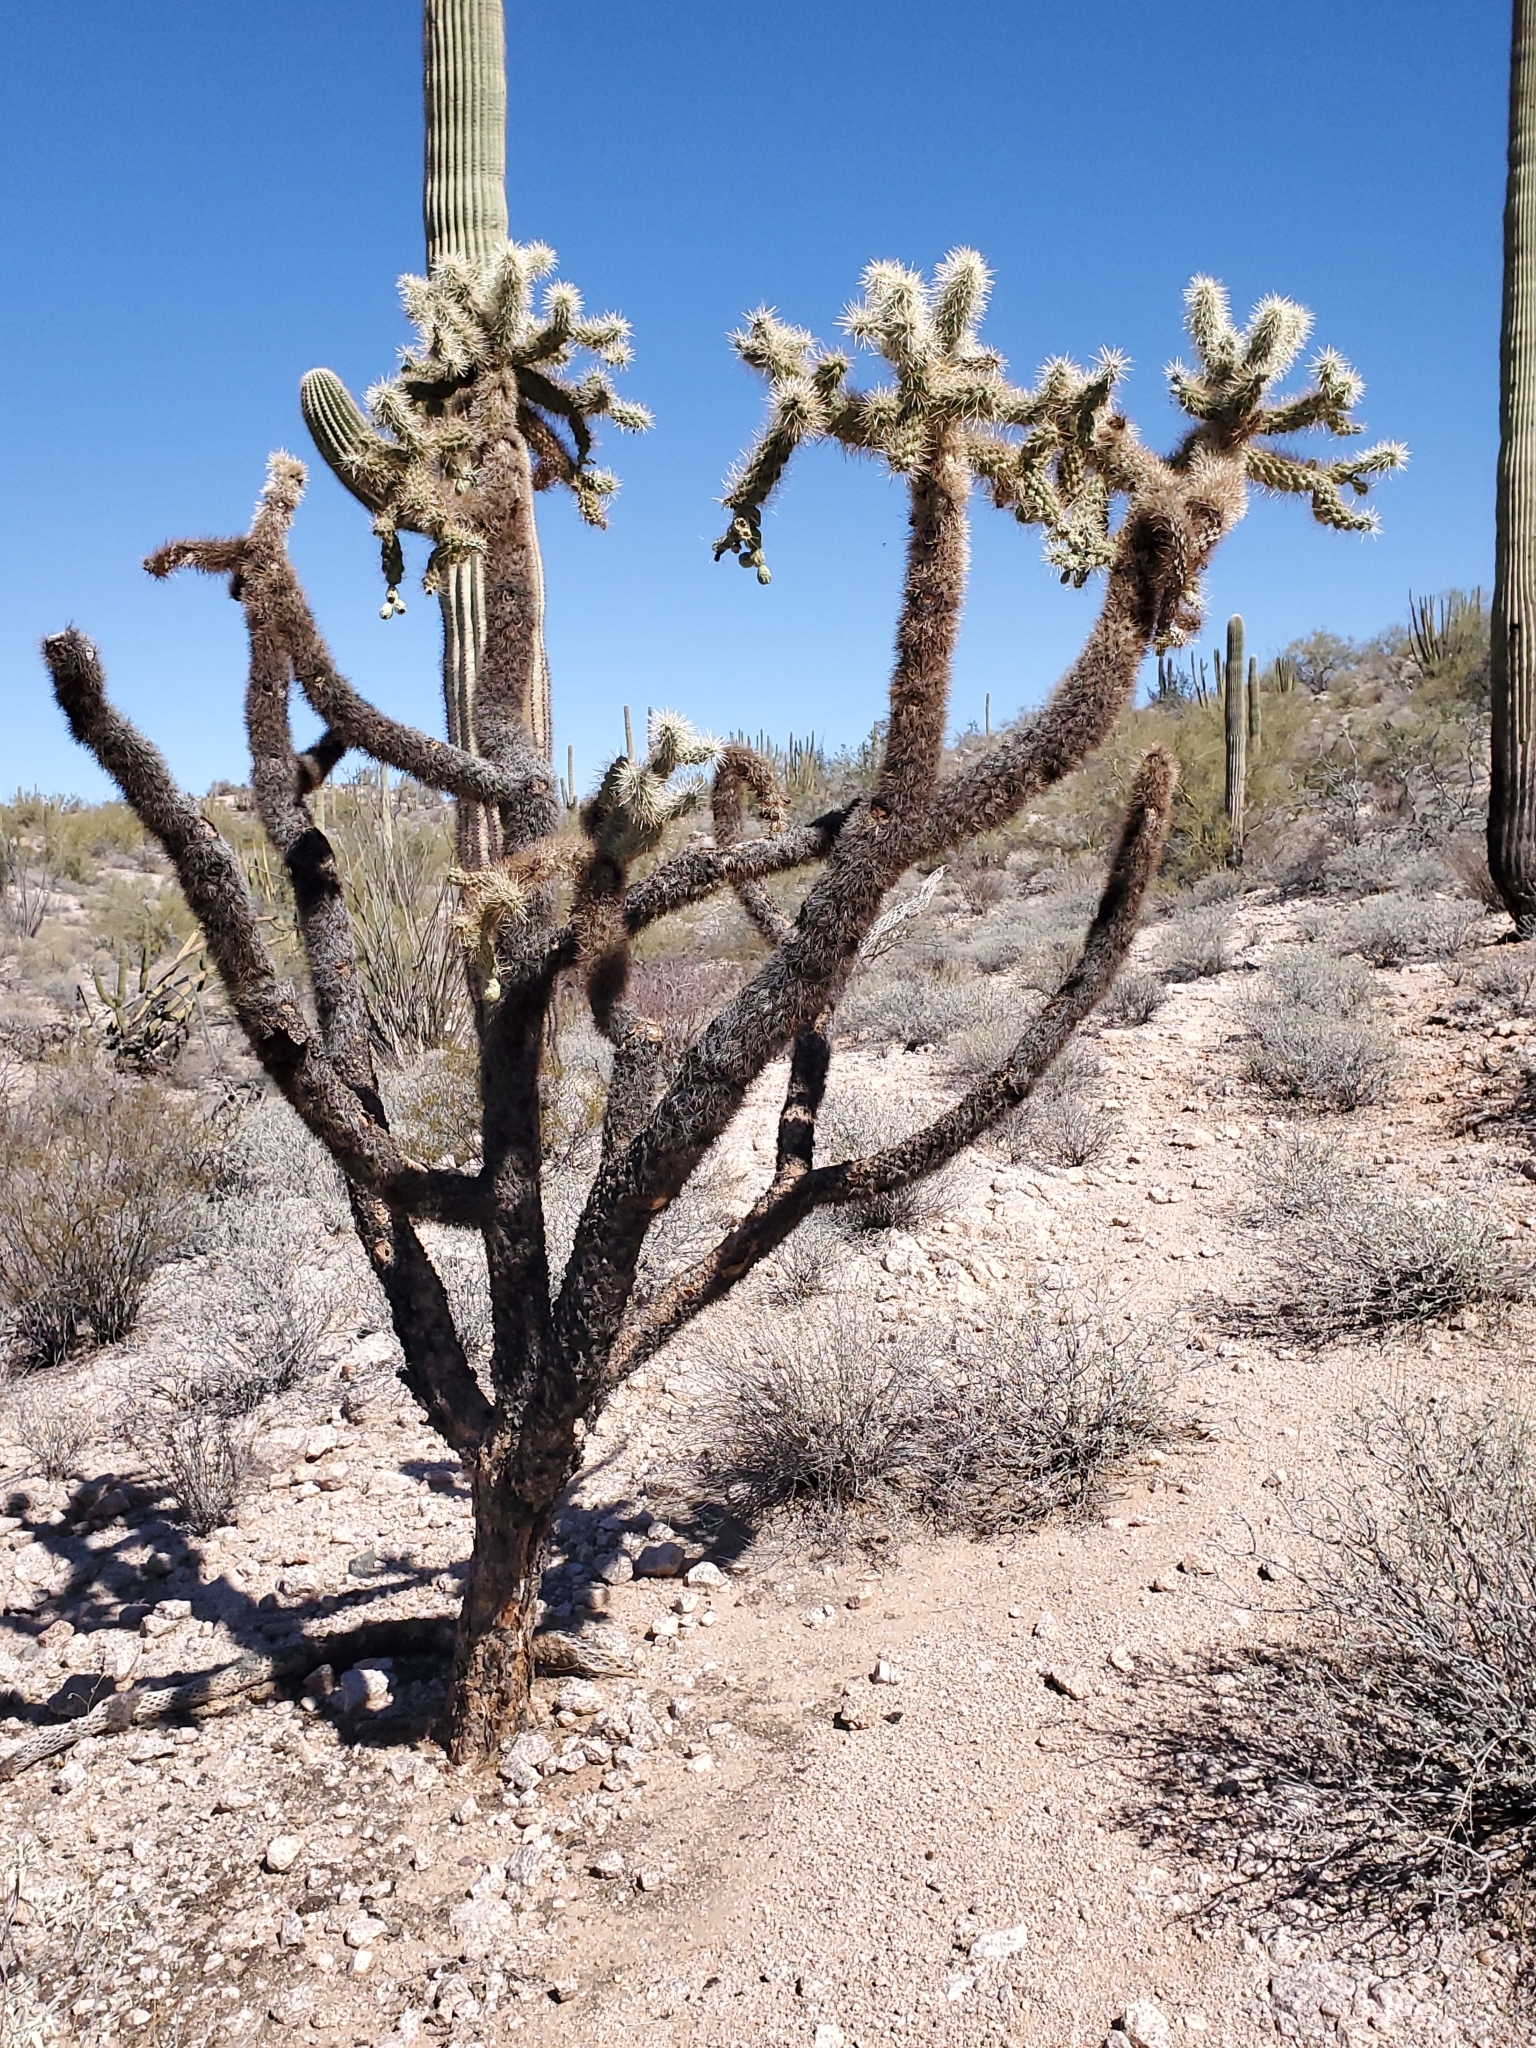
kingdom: Plantae
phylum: Tracheophyta
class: Magnoliopsida
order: Caryophyllales
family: Cactaceae
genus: Cylindropuntia
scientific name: Cylindropuntia fulgida
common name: Jumping cholla
